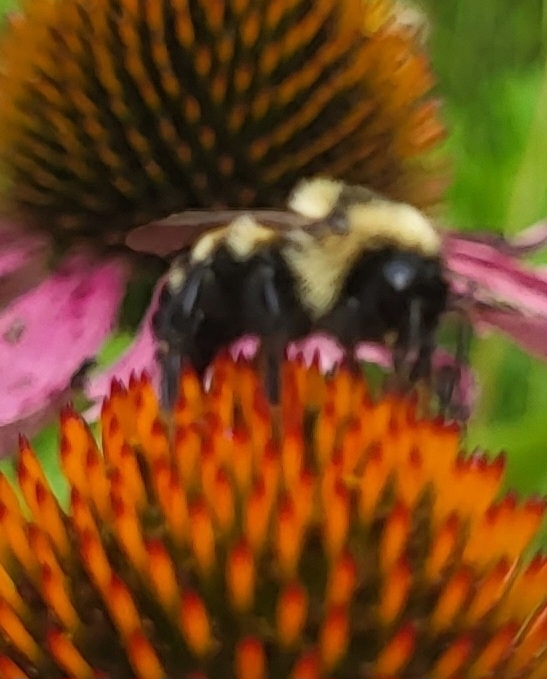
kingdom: Animalia
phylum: Arthropoda
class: Insecta
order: Hymenoptera
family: Apidae
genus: Bombus
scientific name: Bombus citrinus
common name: Lemon cuckoo bumble bee
